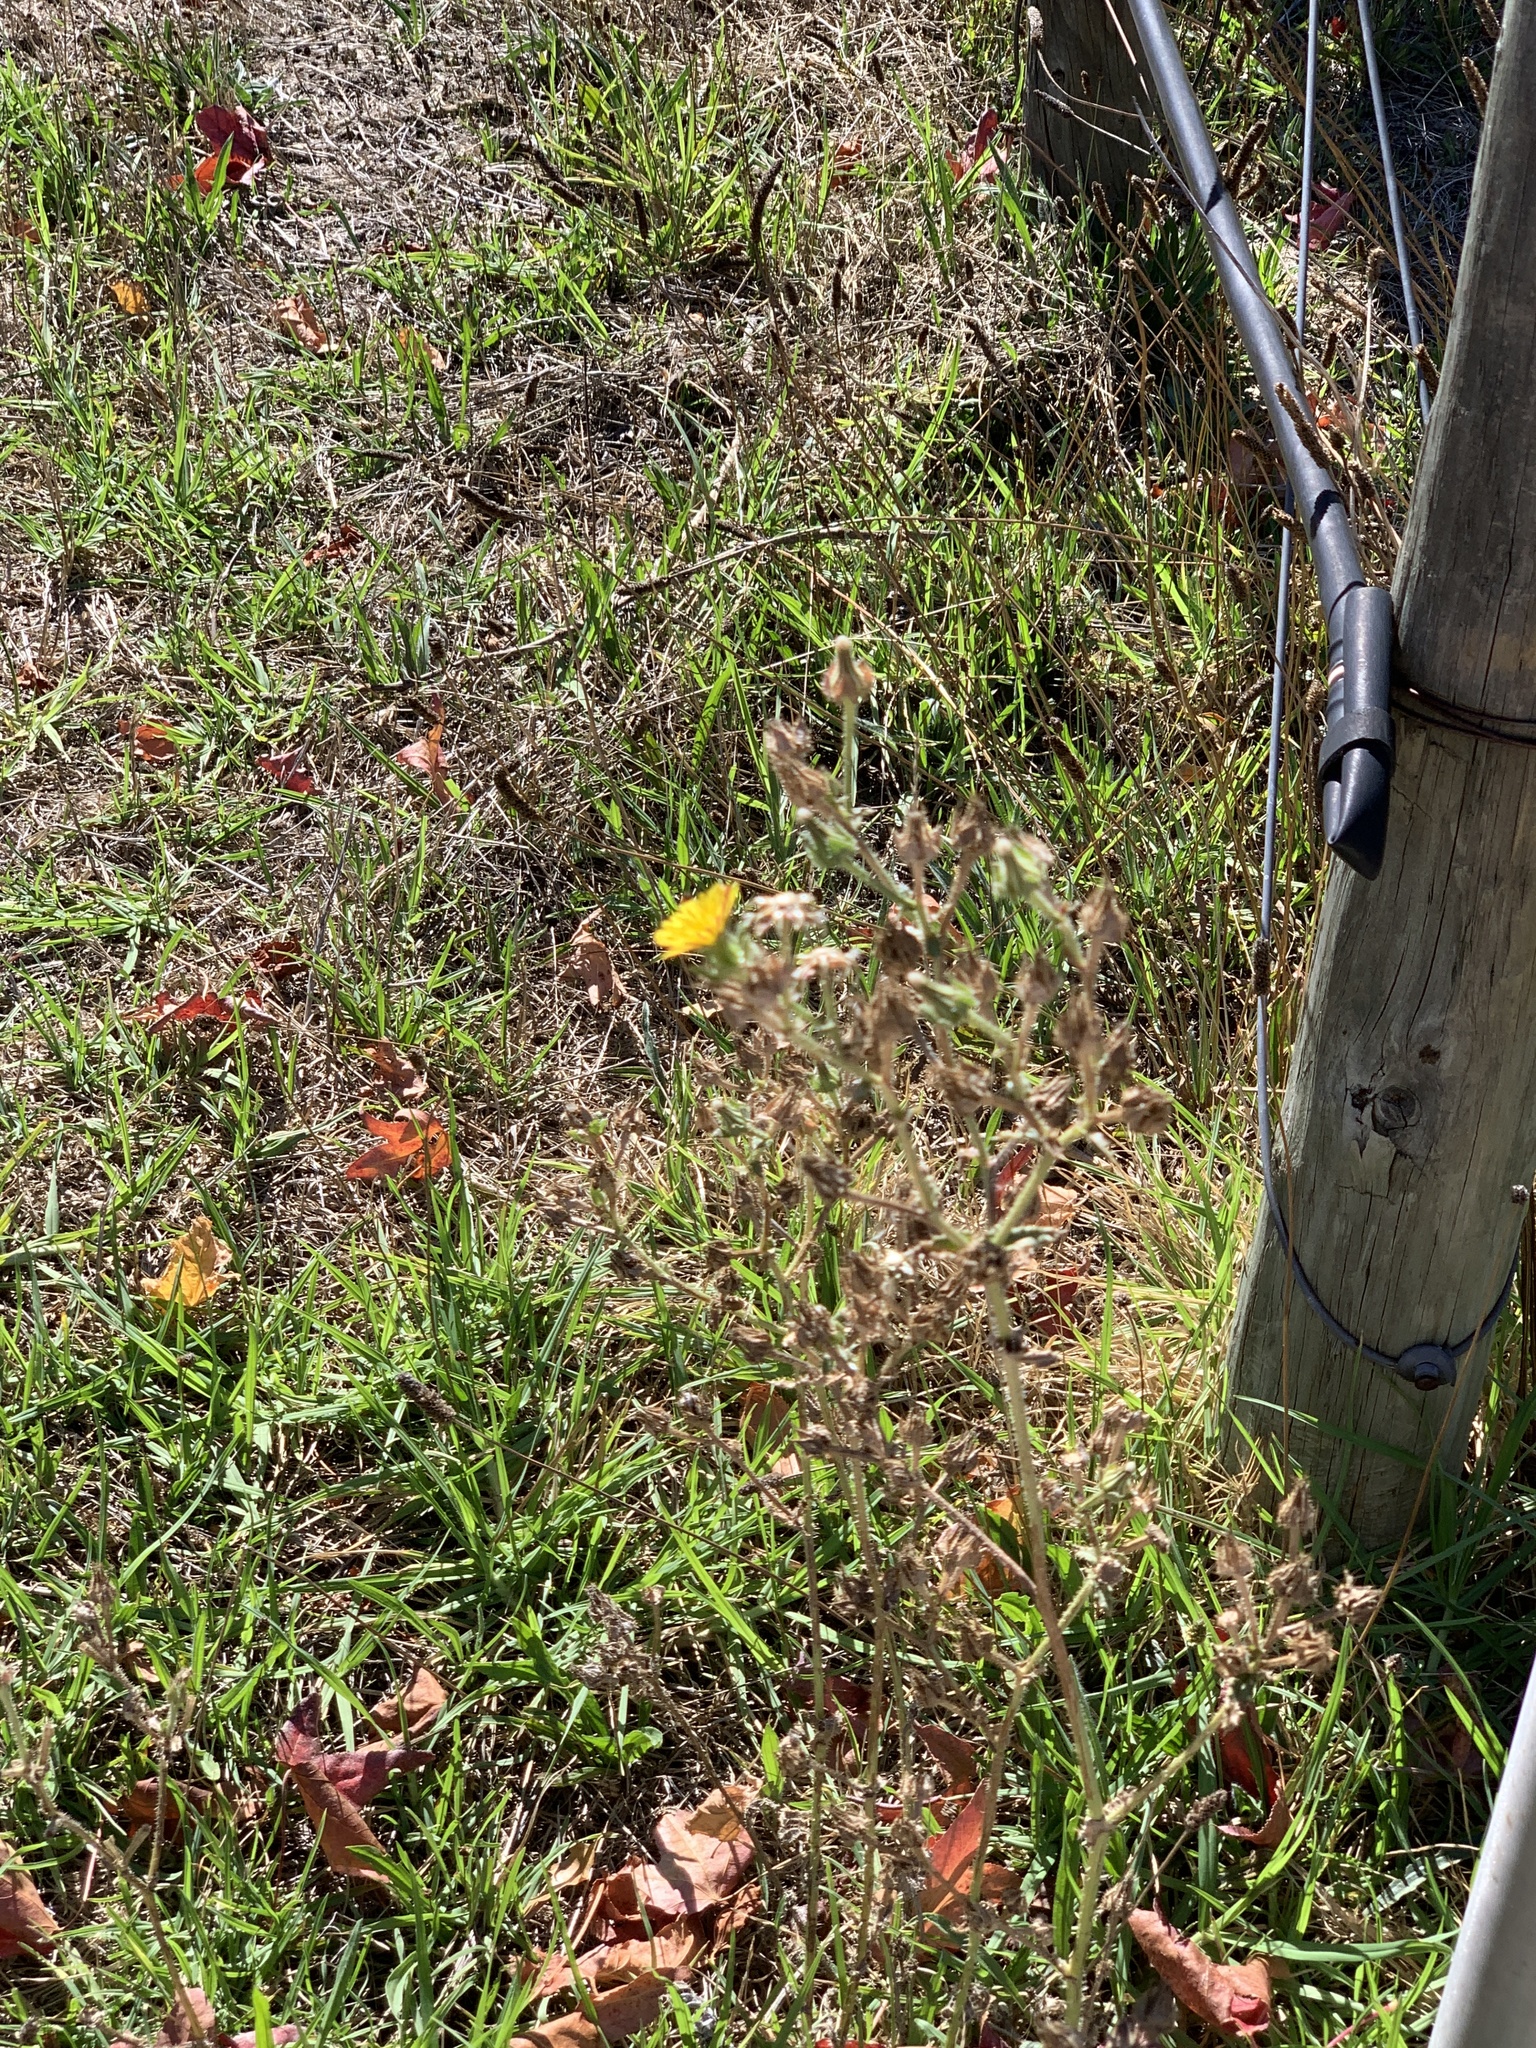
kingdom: Plantae
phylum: Tracheophyta
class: Magnoliopsida
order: Asterales
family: Asteraceae
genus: Helminthotheca
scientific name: Helminthotheca echioides
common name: Ox-tongue
